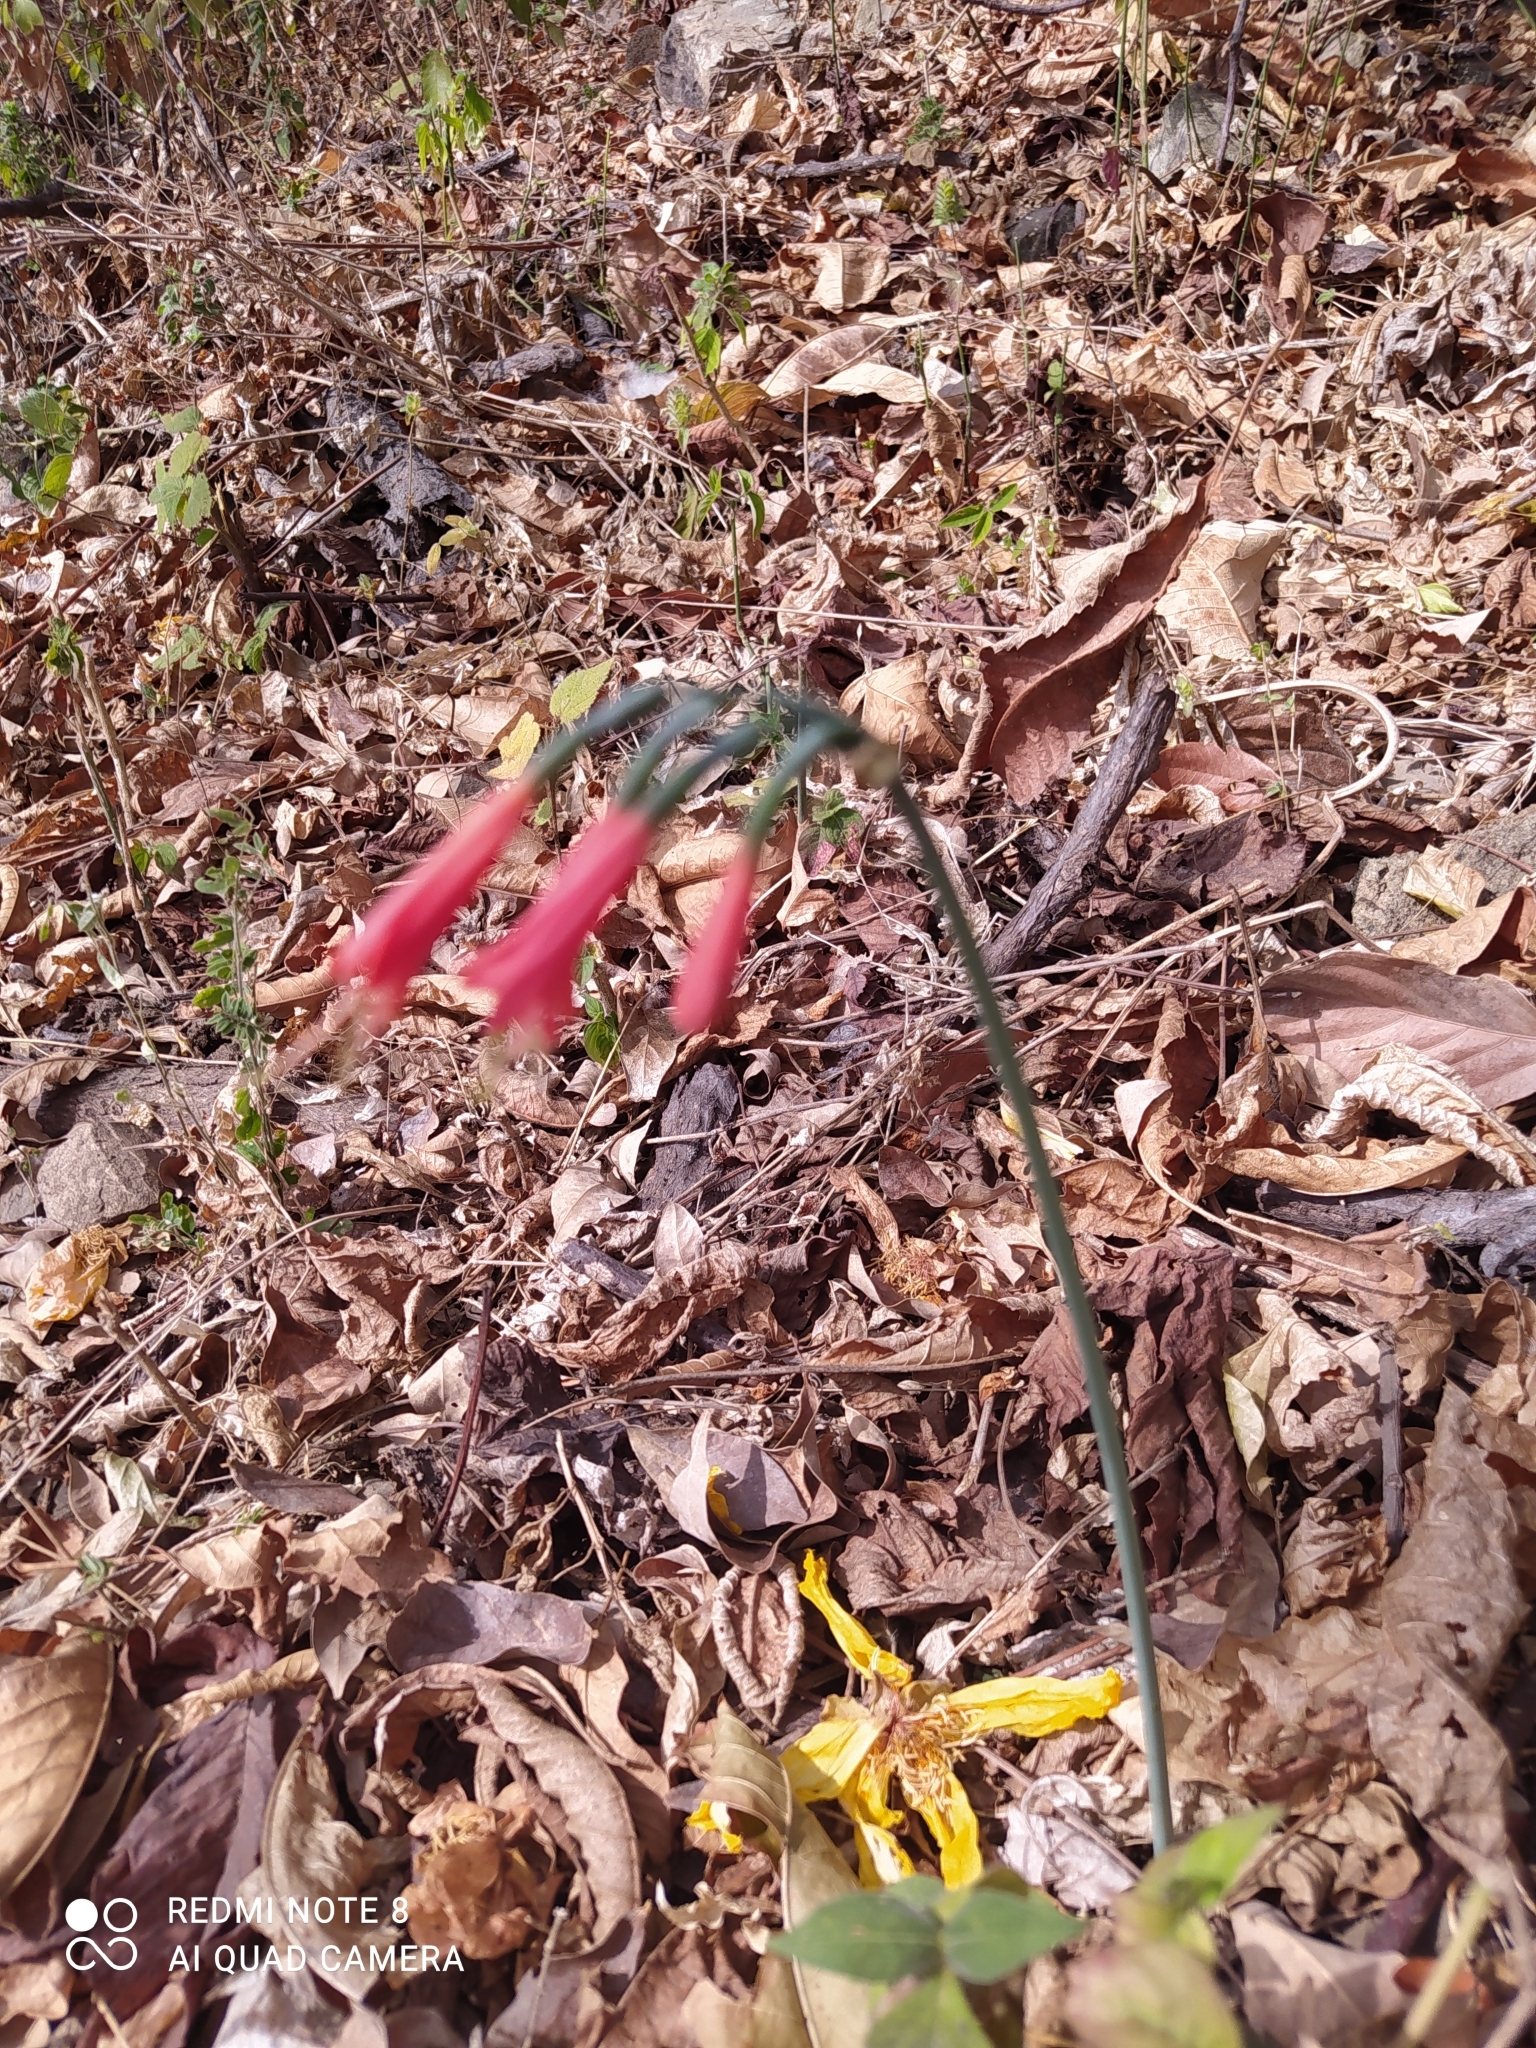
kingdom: Plantae
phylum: Tracheophyta
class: Liliopsida
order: Asparagales
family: Amaryllidaceae
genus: Eucrosia
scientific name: Eucrosia stricklandii
